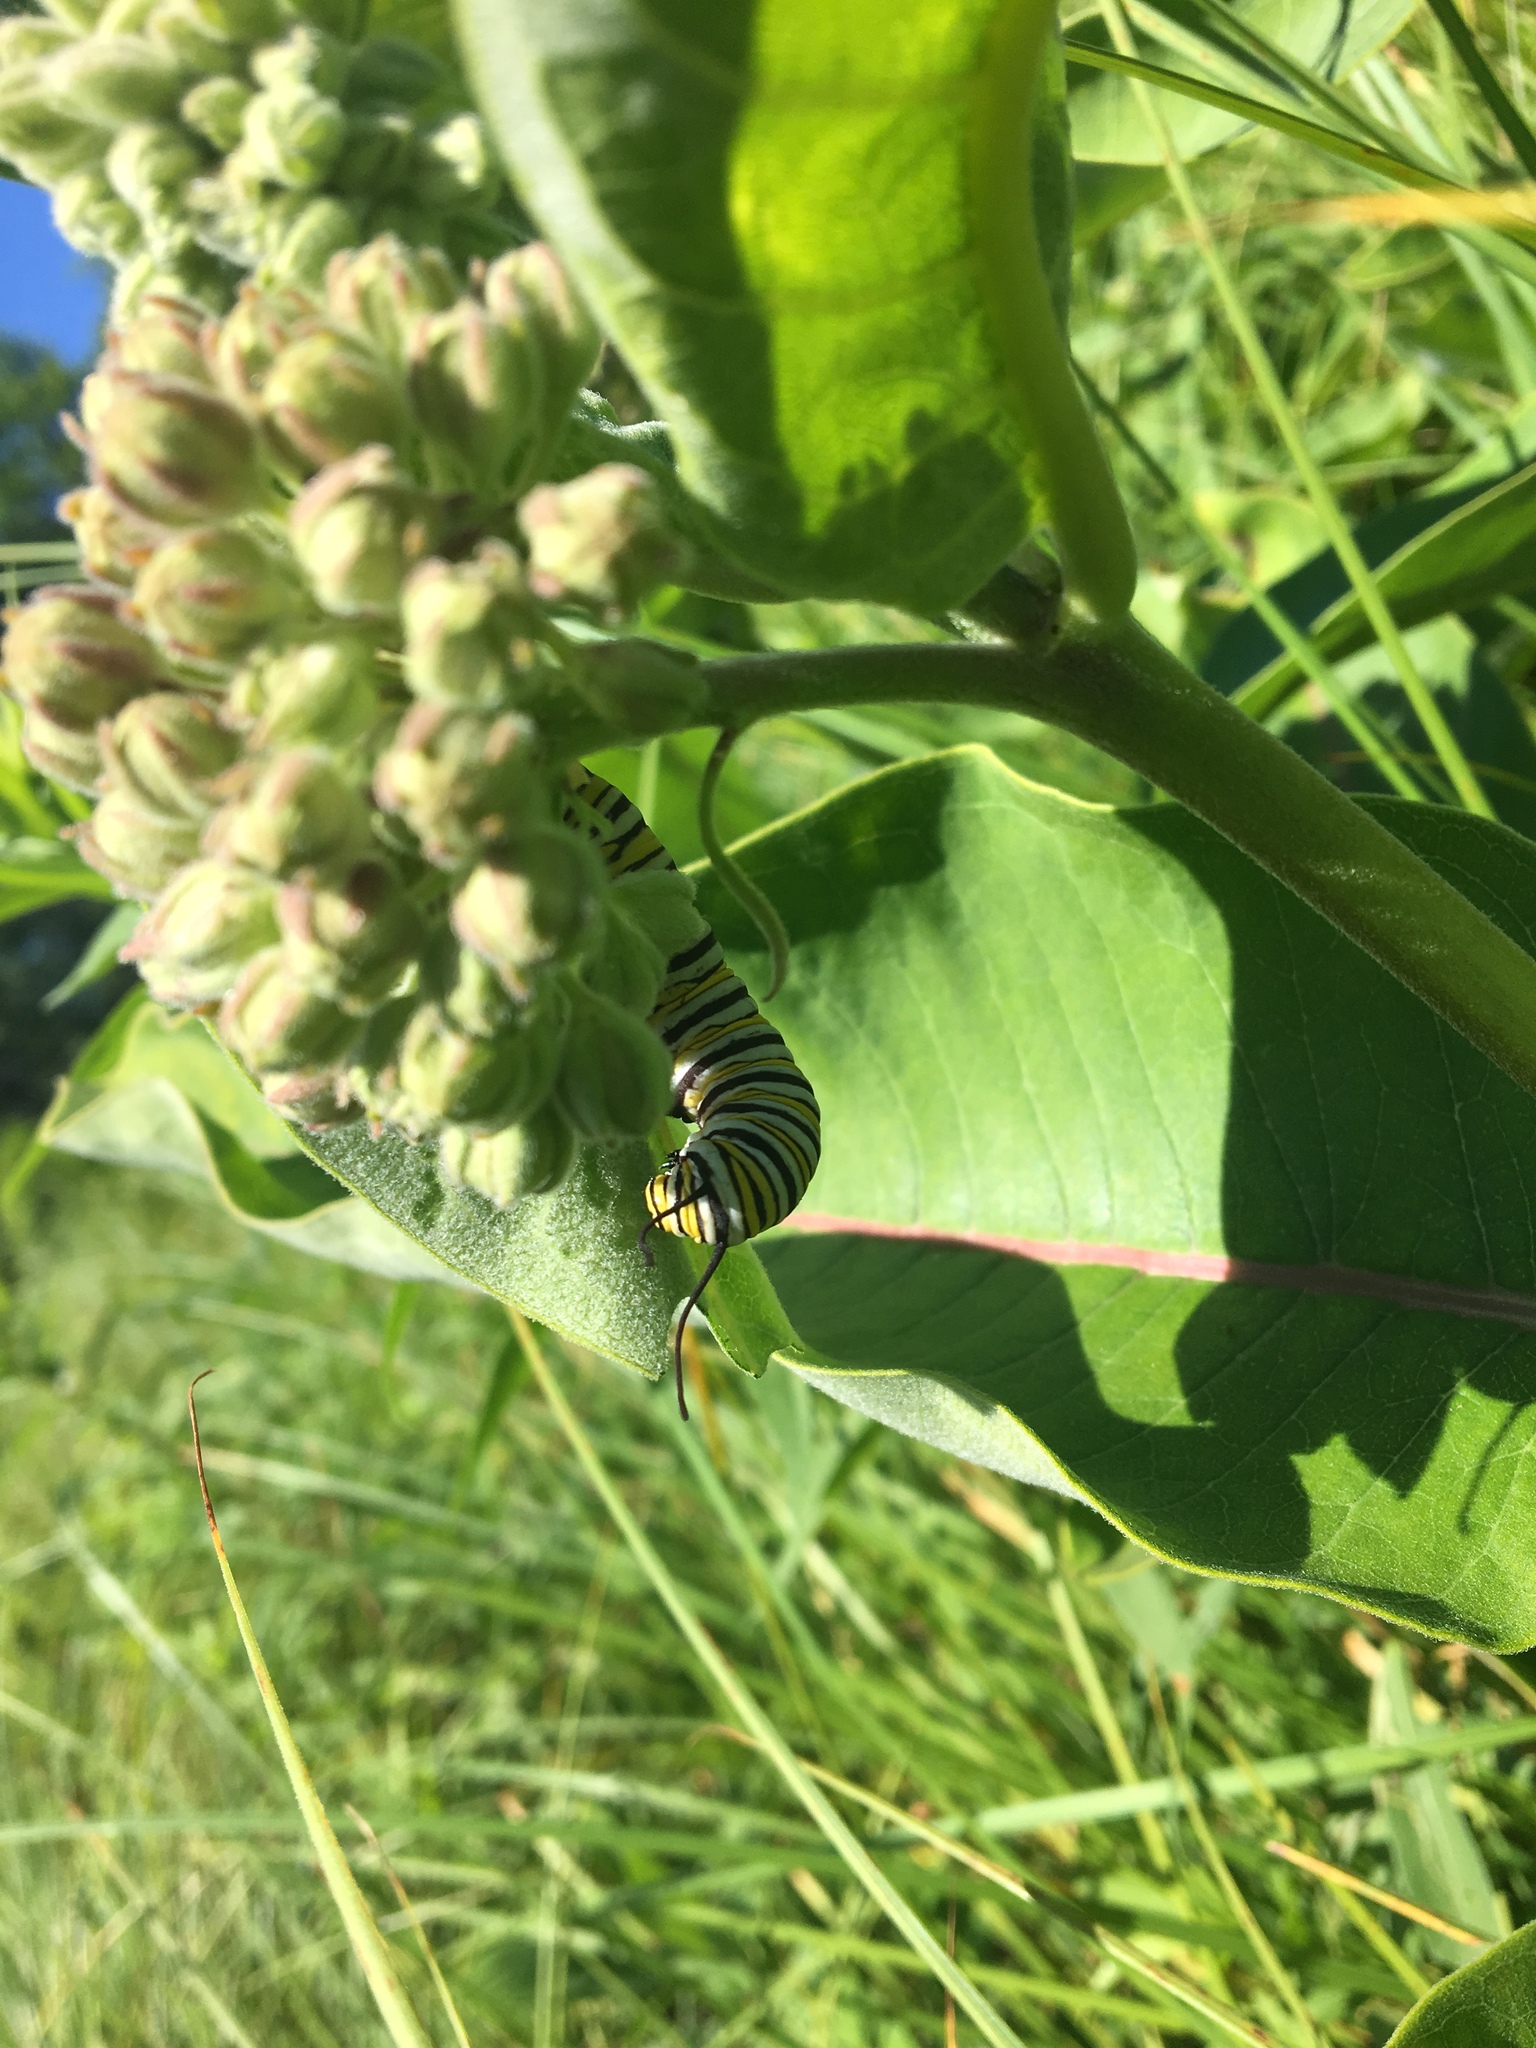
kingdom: Animalia
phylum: Arthropoda
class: Insecta
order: Lepidoptera
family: Nymphalidae
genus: Danaus
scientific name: Danaus plexippus
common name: Monarch
